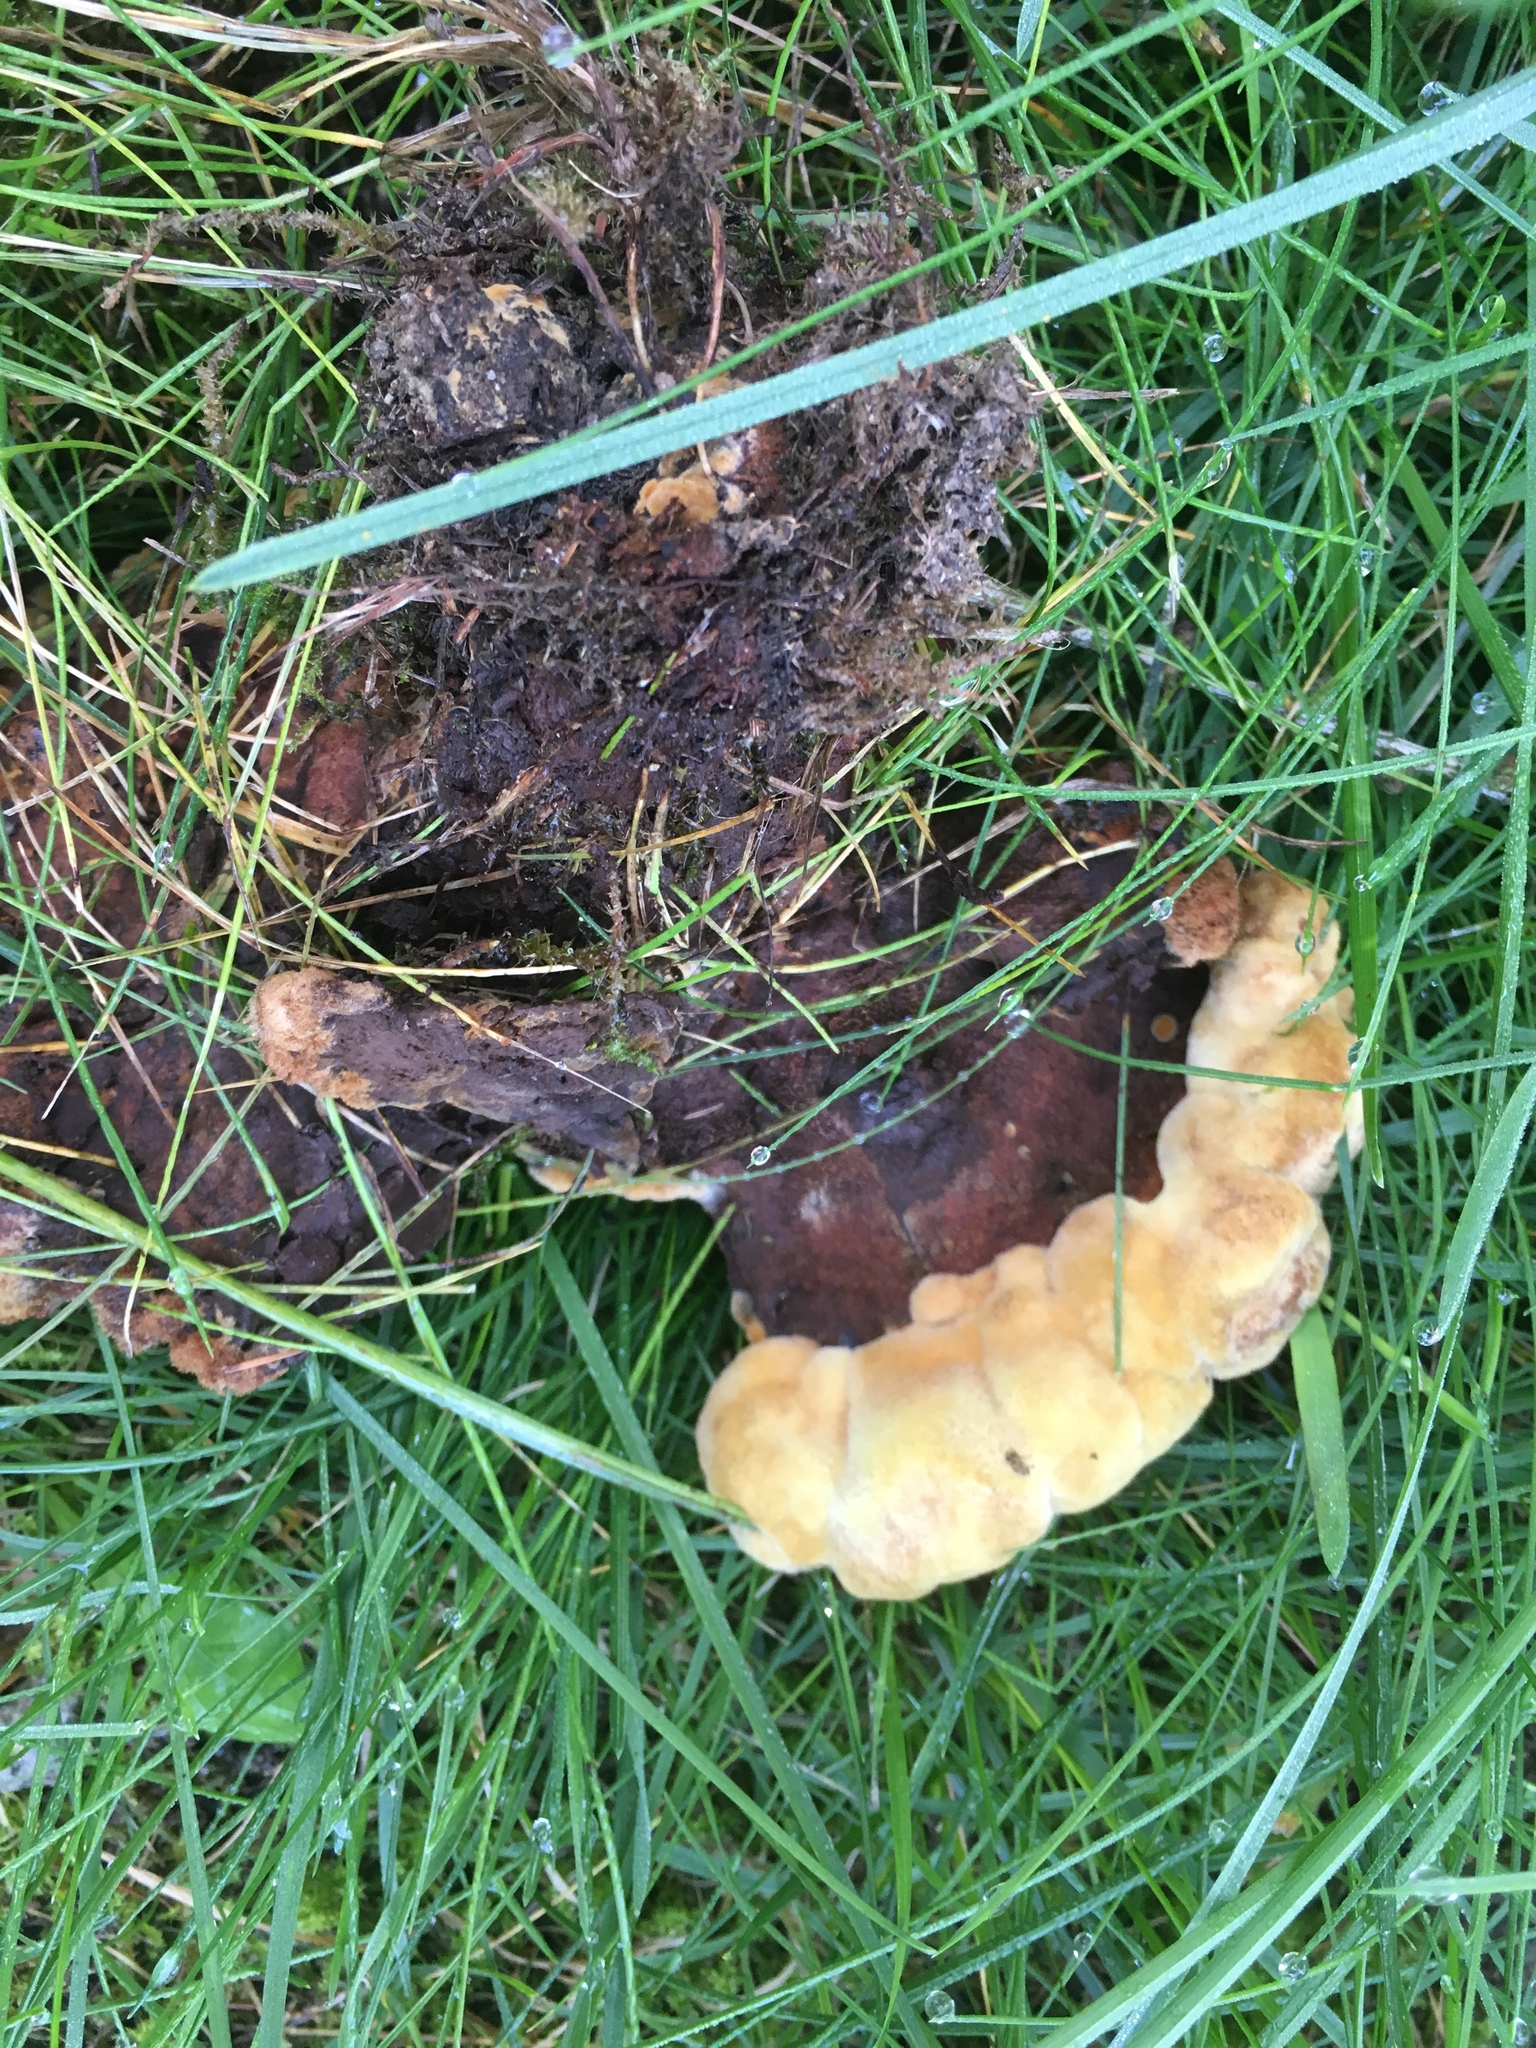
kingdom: Fungi
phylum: Basidiomycota
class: Agaricomycetes
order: Polyporales
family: Laetiporaceae
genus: Phaeolus
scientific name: Phaeolus schweinitzii
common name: Dyer's mazegill
